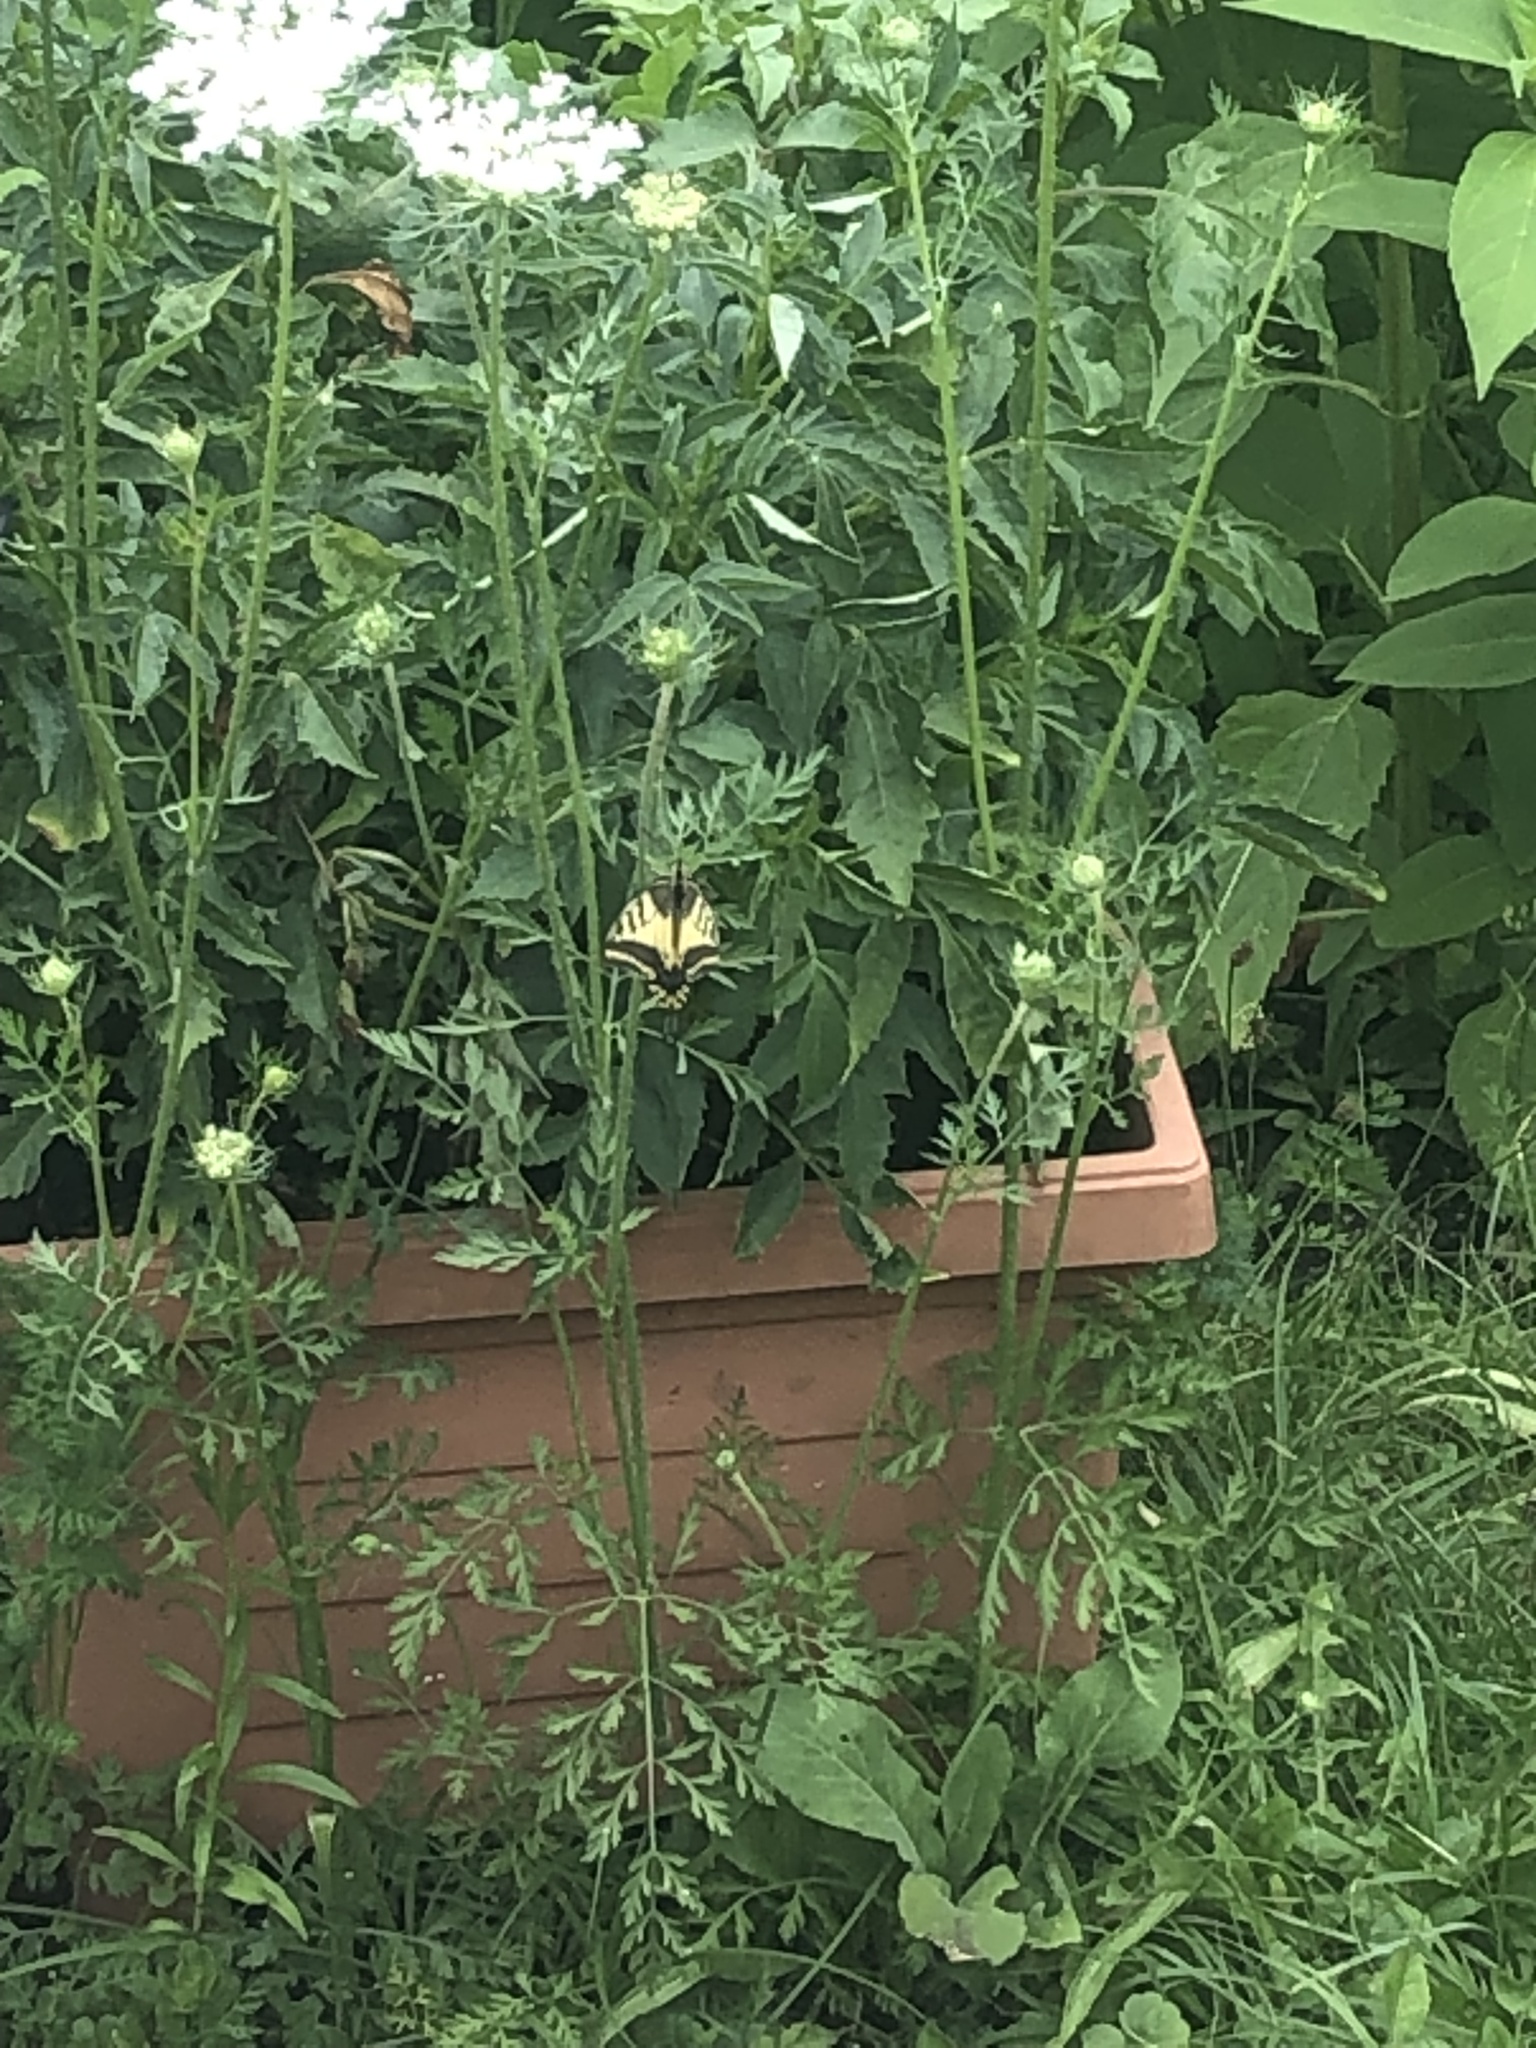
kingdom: Animalia
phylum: Arthropoda
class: Insecta
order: Lepidoptera
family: Papilionidae
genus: Papilio
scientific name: Papilio machaon
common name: Swallowtail
